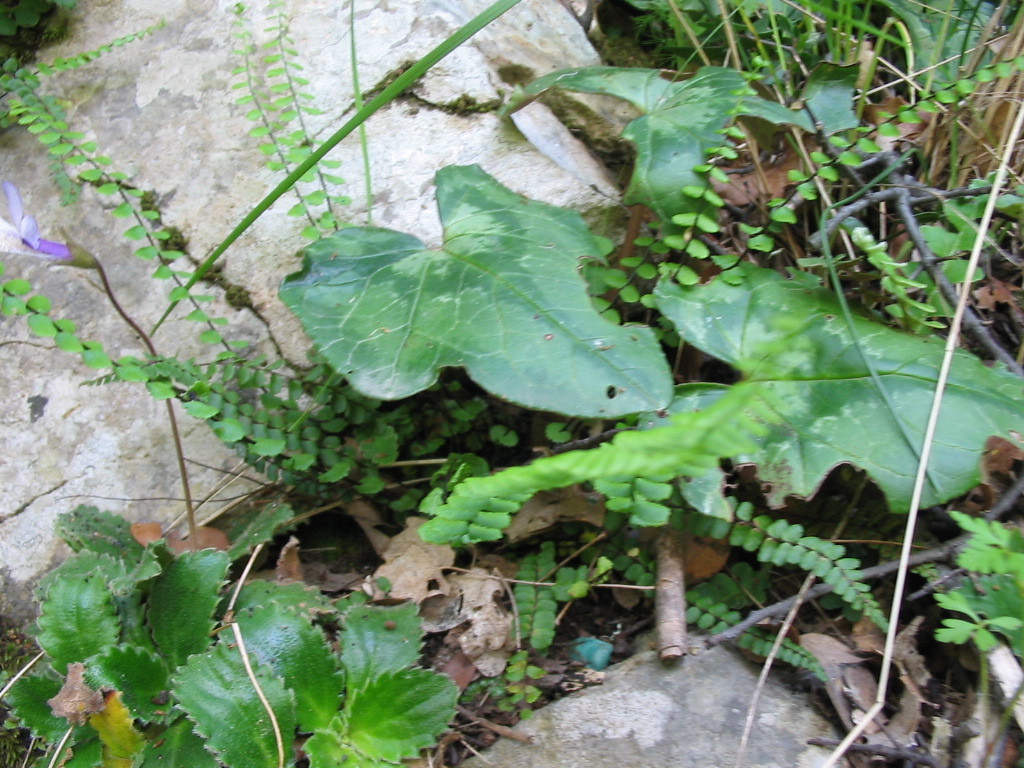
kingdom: Plantae
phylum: Tracheophyta
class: Polypodiopsida
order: Polypodiales
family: Aspleniaceae
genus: Asplenium
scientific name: Asplenium trichomanes
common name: Maidenhair spleenwort
